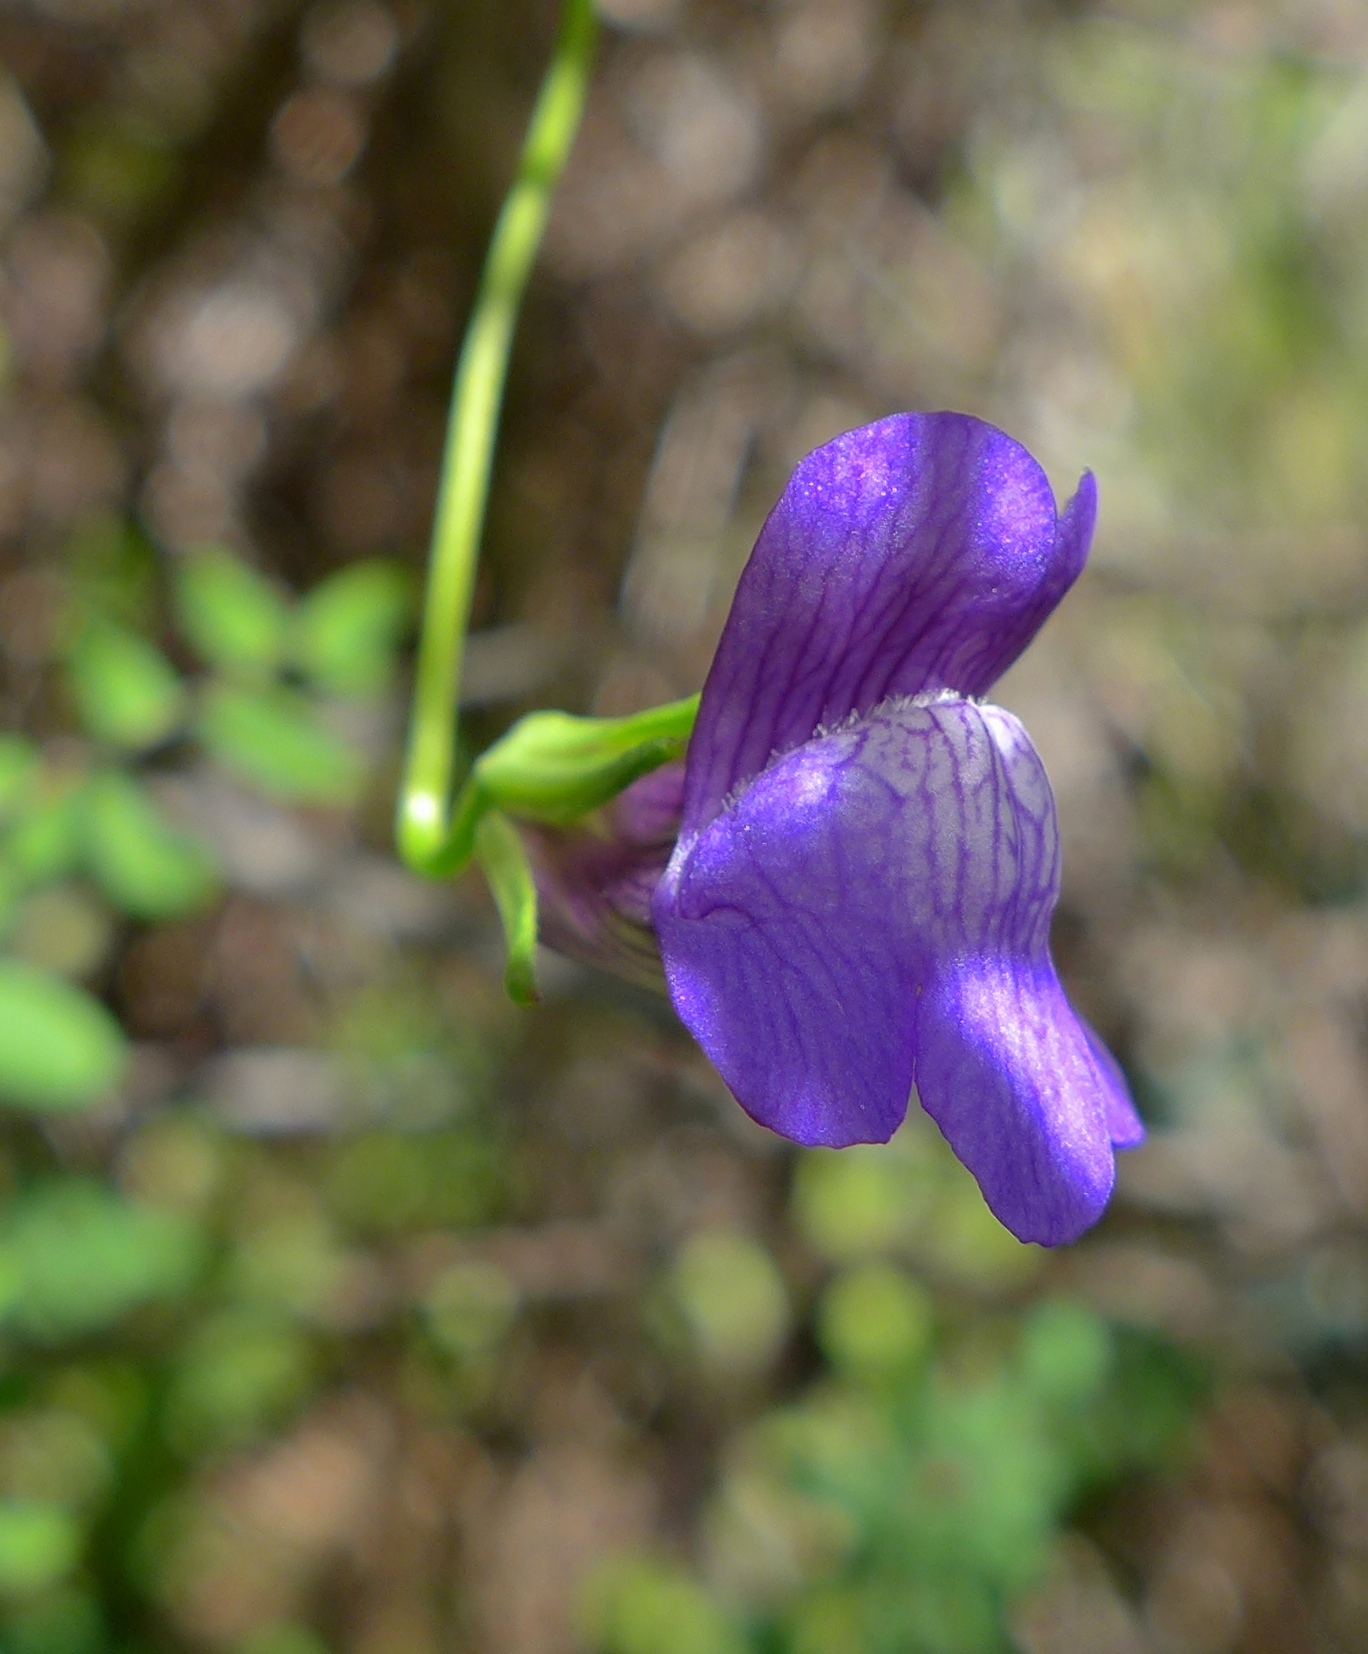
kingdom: Plantae
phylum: Tracheophyta
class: Magnoliopsida
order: Lamiales
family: Plantaginaceae
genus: Neogaerrhinum
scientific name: Neogaerrhinum strictum
